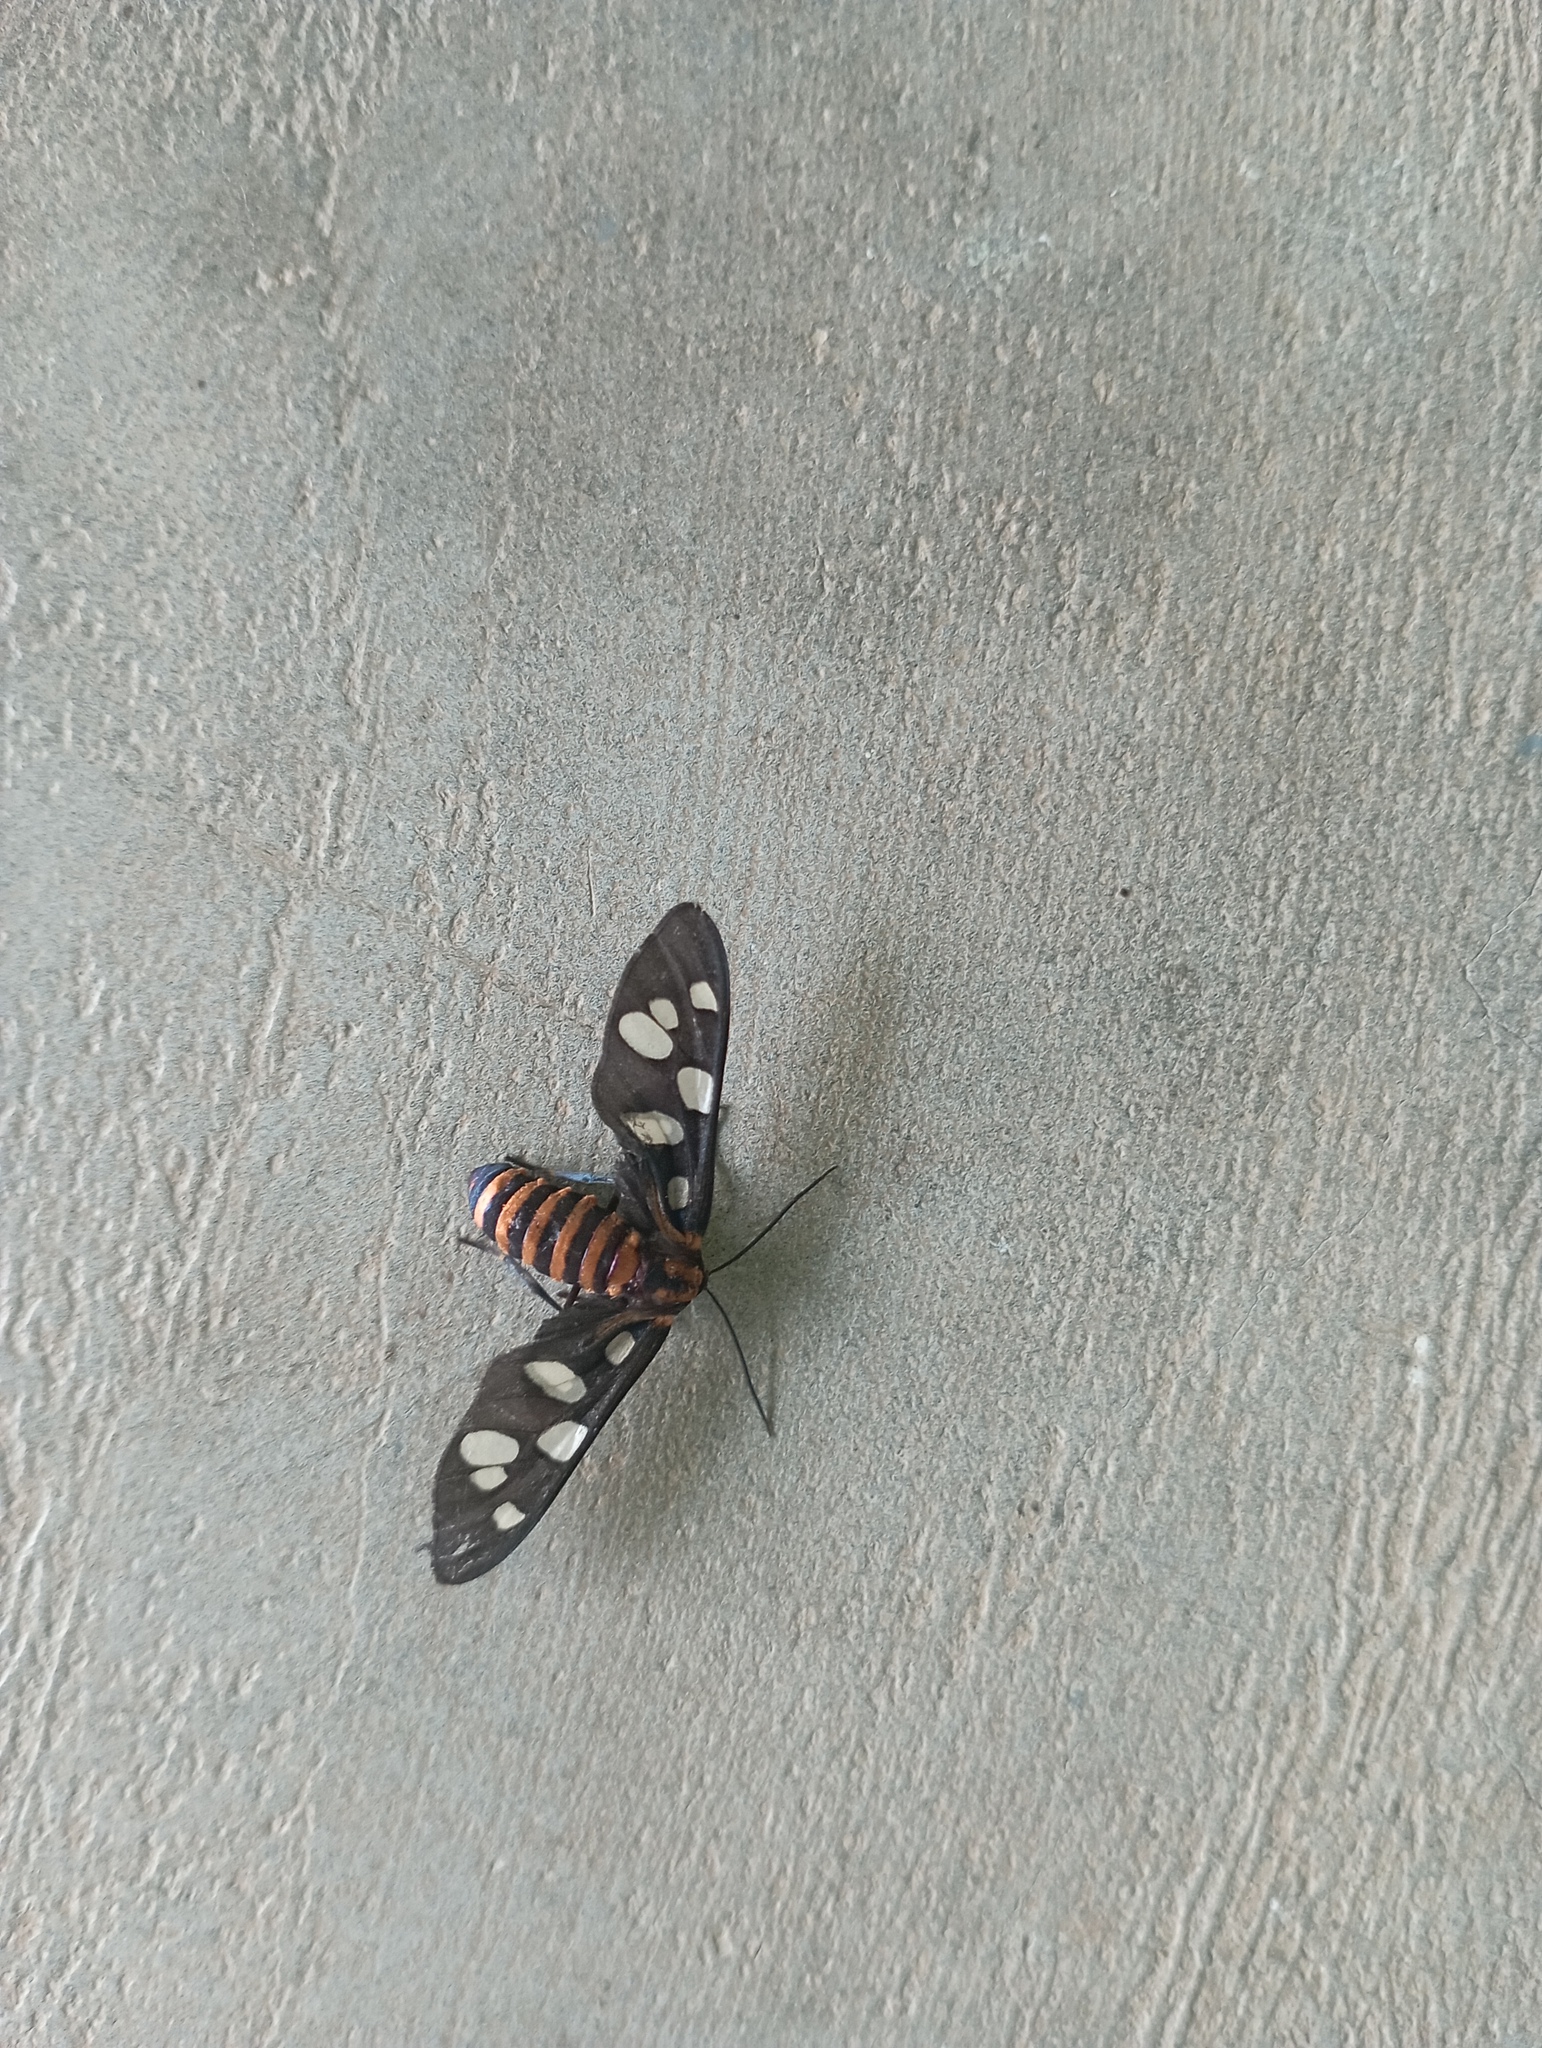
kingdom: Animalia
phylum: Arthropoda
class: Insecta
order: Lepidoptera
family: Erebidae
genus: Amata
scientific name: Amata passalis
